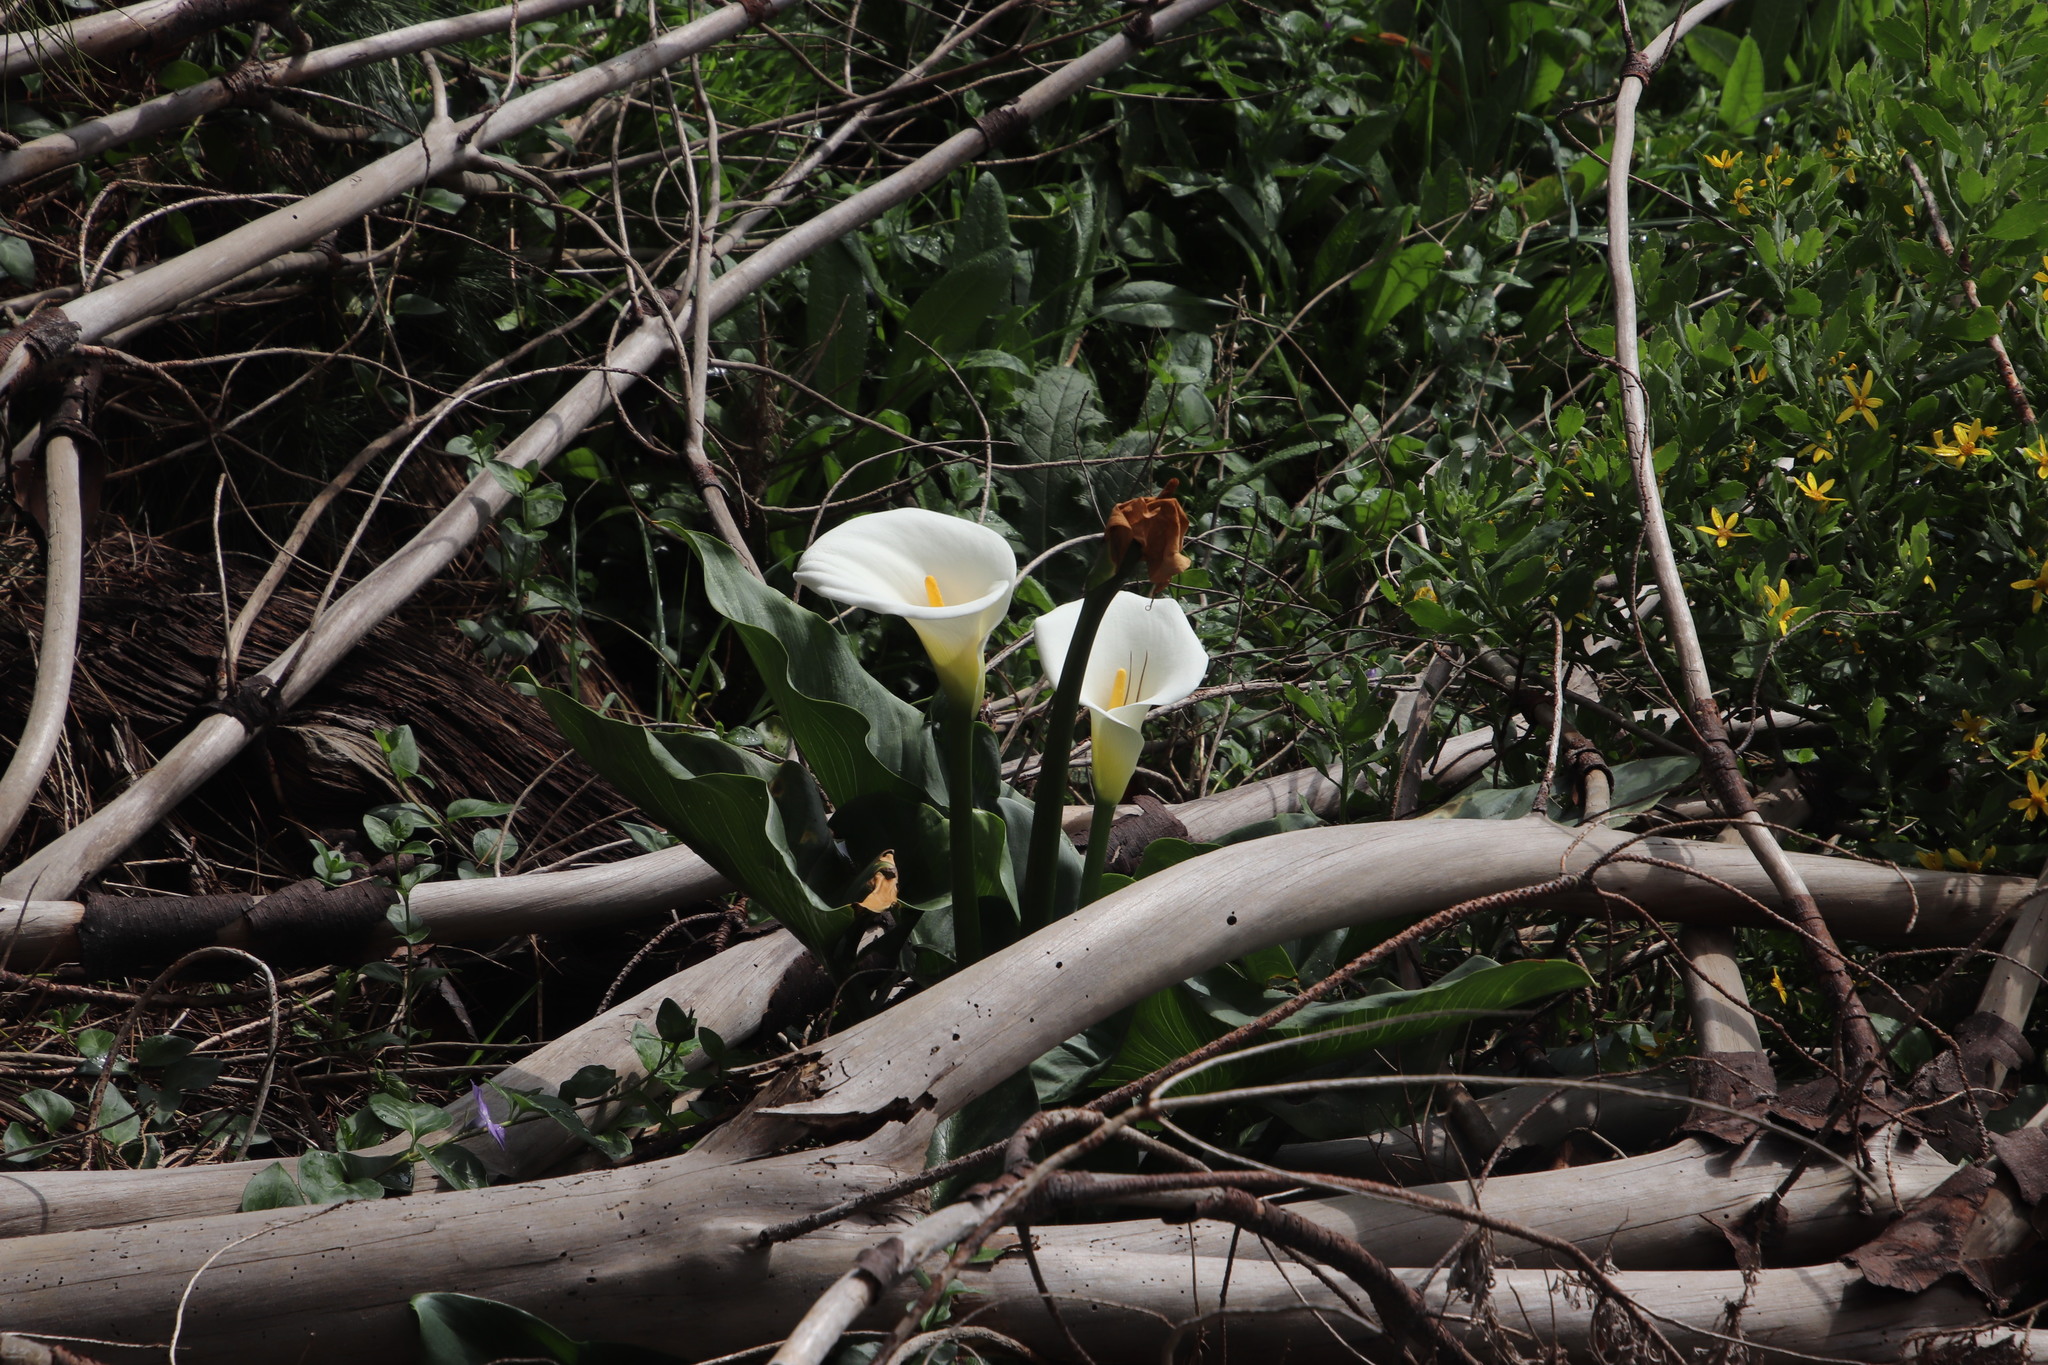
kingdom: Plantae
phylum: Tracheophyta
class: Liliopsida
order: Alismatales
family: Araceae
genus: Zantedeschia
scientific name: Zantedeschia aethiopica
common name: Altar-lily
